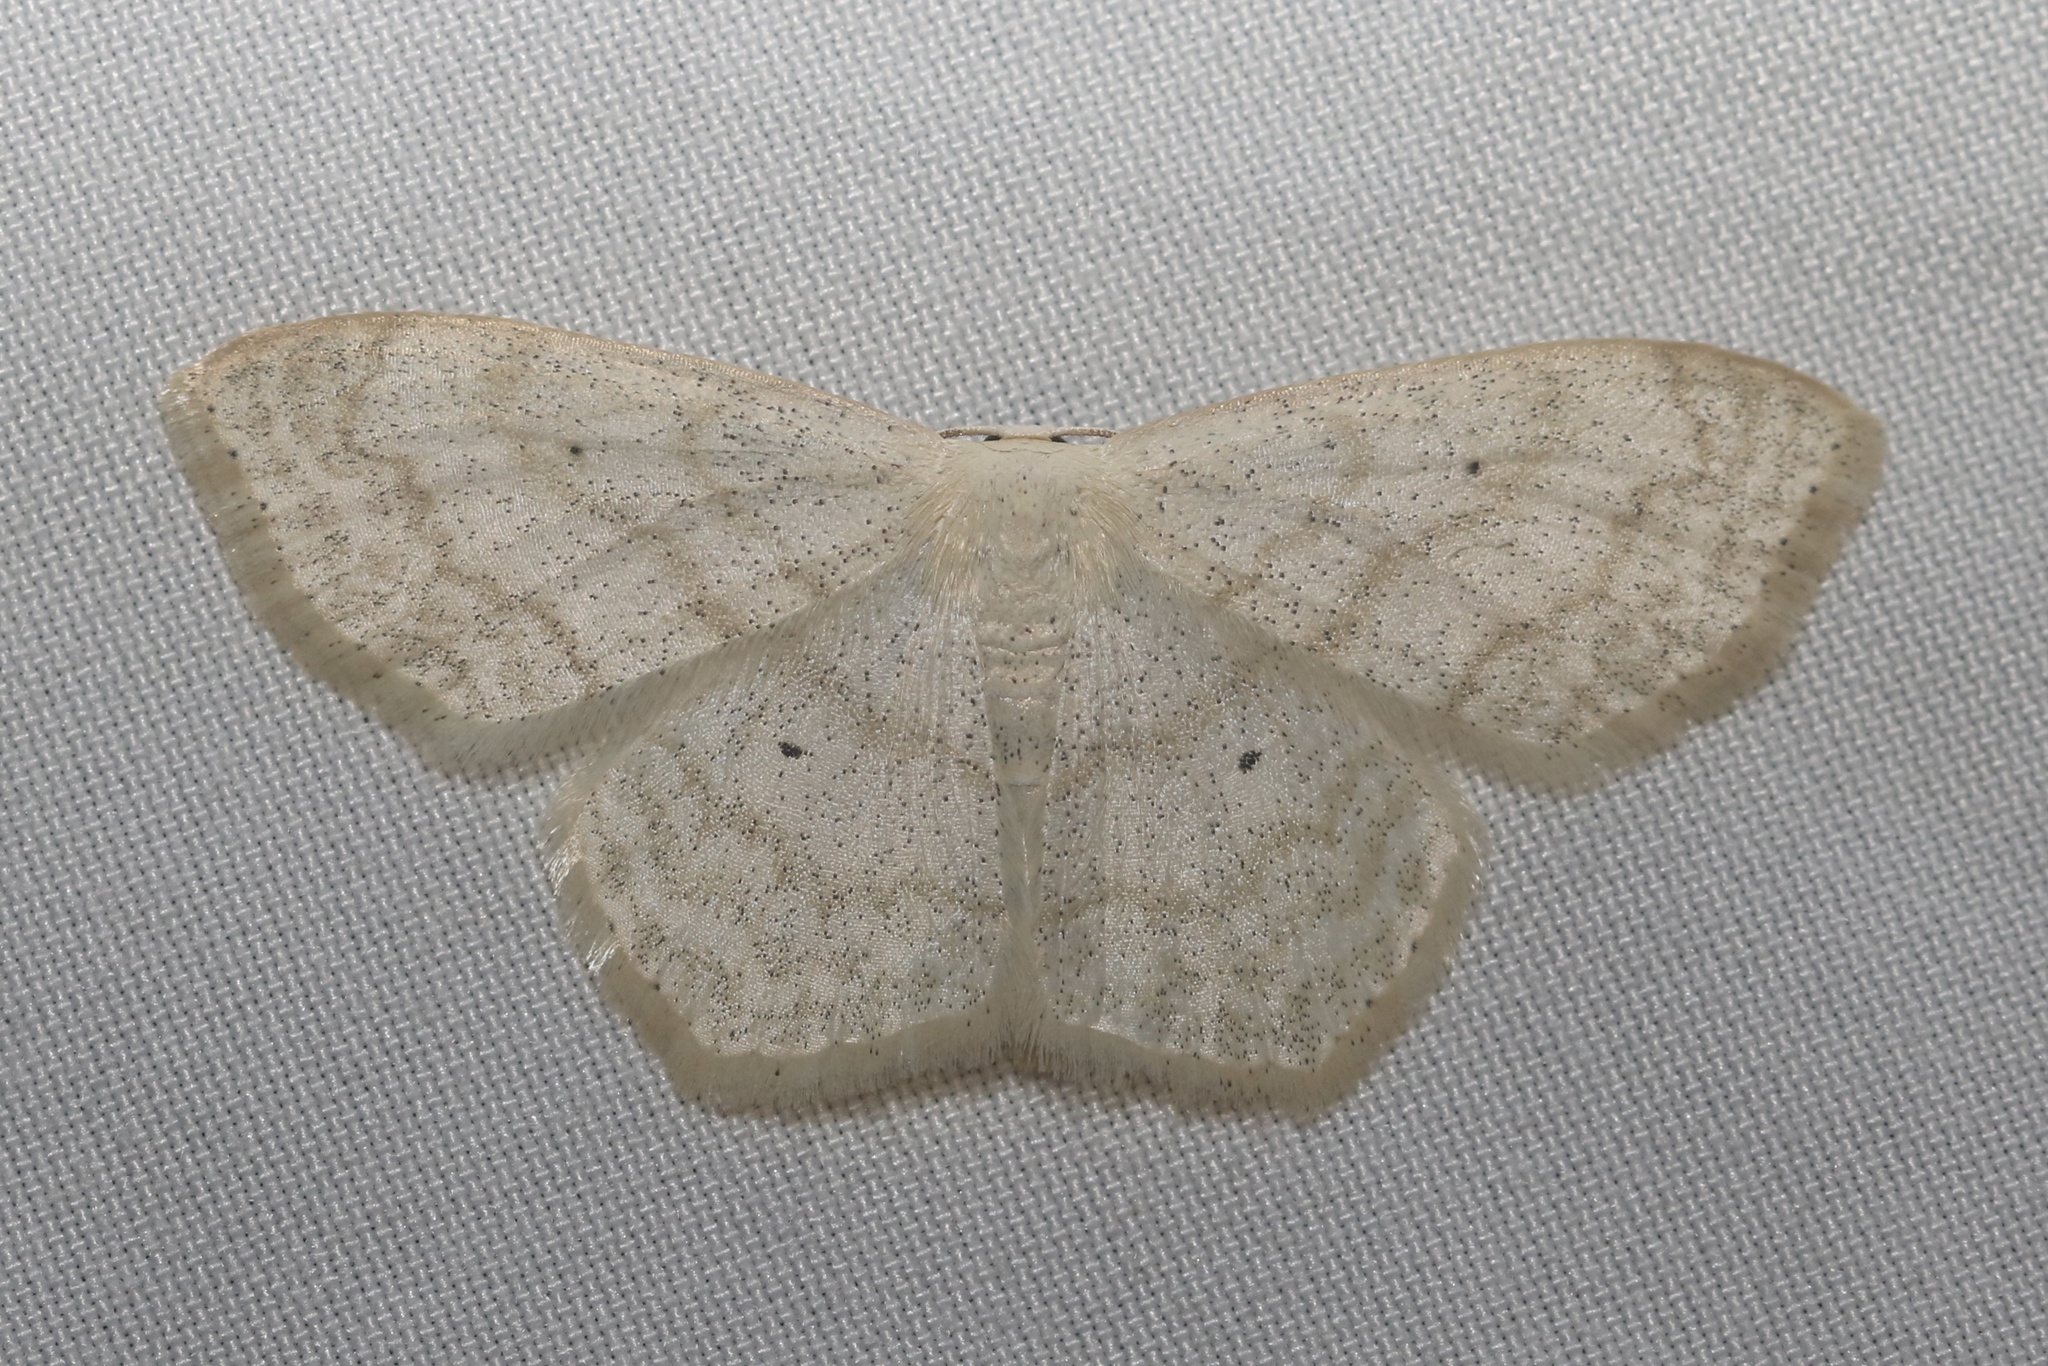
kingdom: Animalia
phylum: Arthropoda
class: Insecta
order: Lepidoptera
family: Geometridae
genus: Scopula
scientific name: Scopula limboundata
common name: Large lace border
